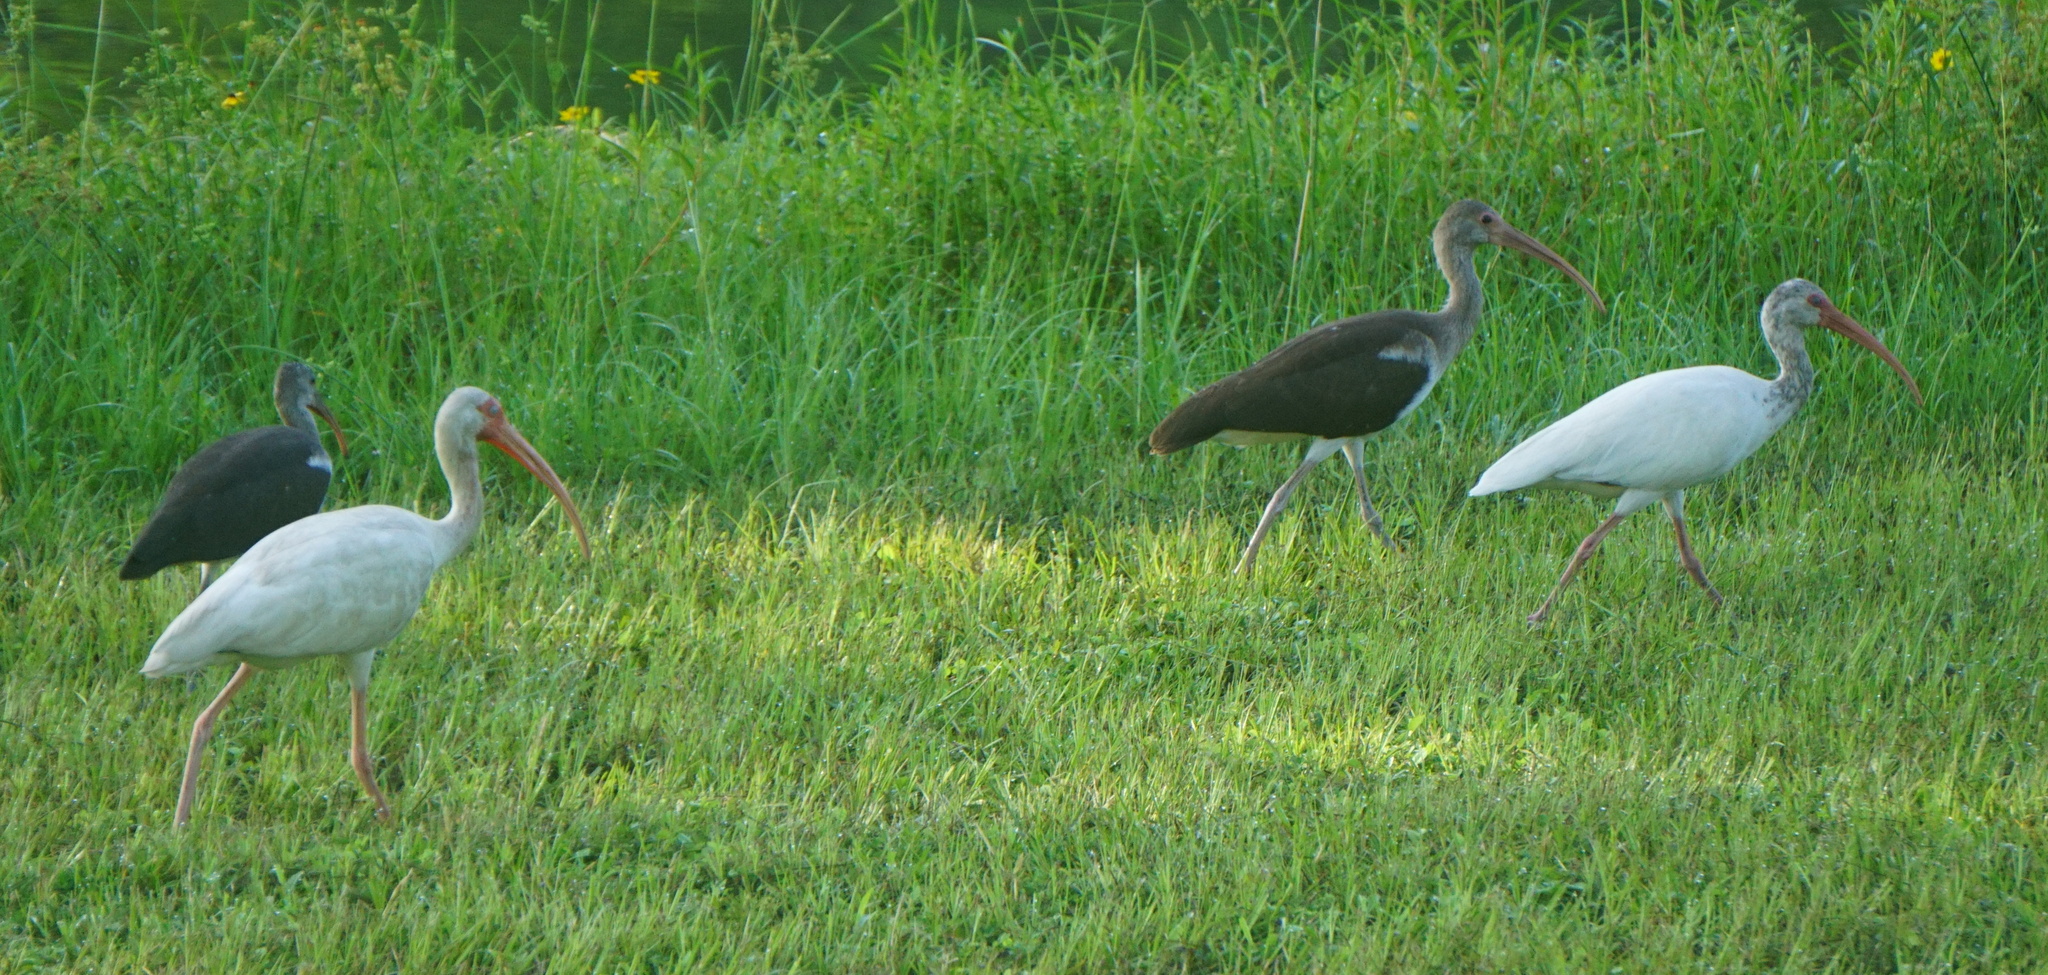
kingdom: Animalia
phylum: Chordata
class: Aves
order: Pelecaniformes
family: Threskiornithidae
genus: Eudocimus
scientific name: Eudocimus albus
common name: White ibis
